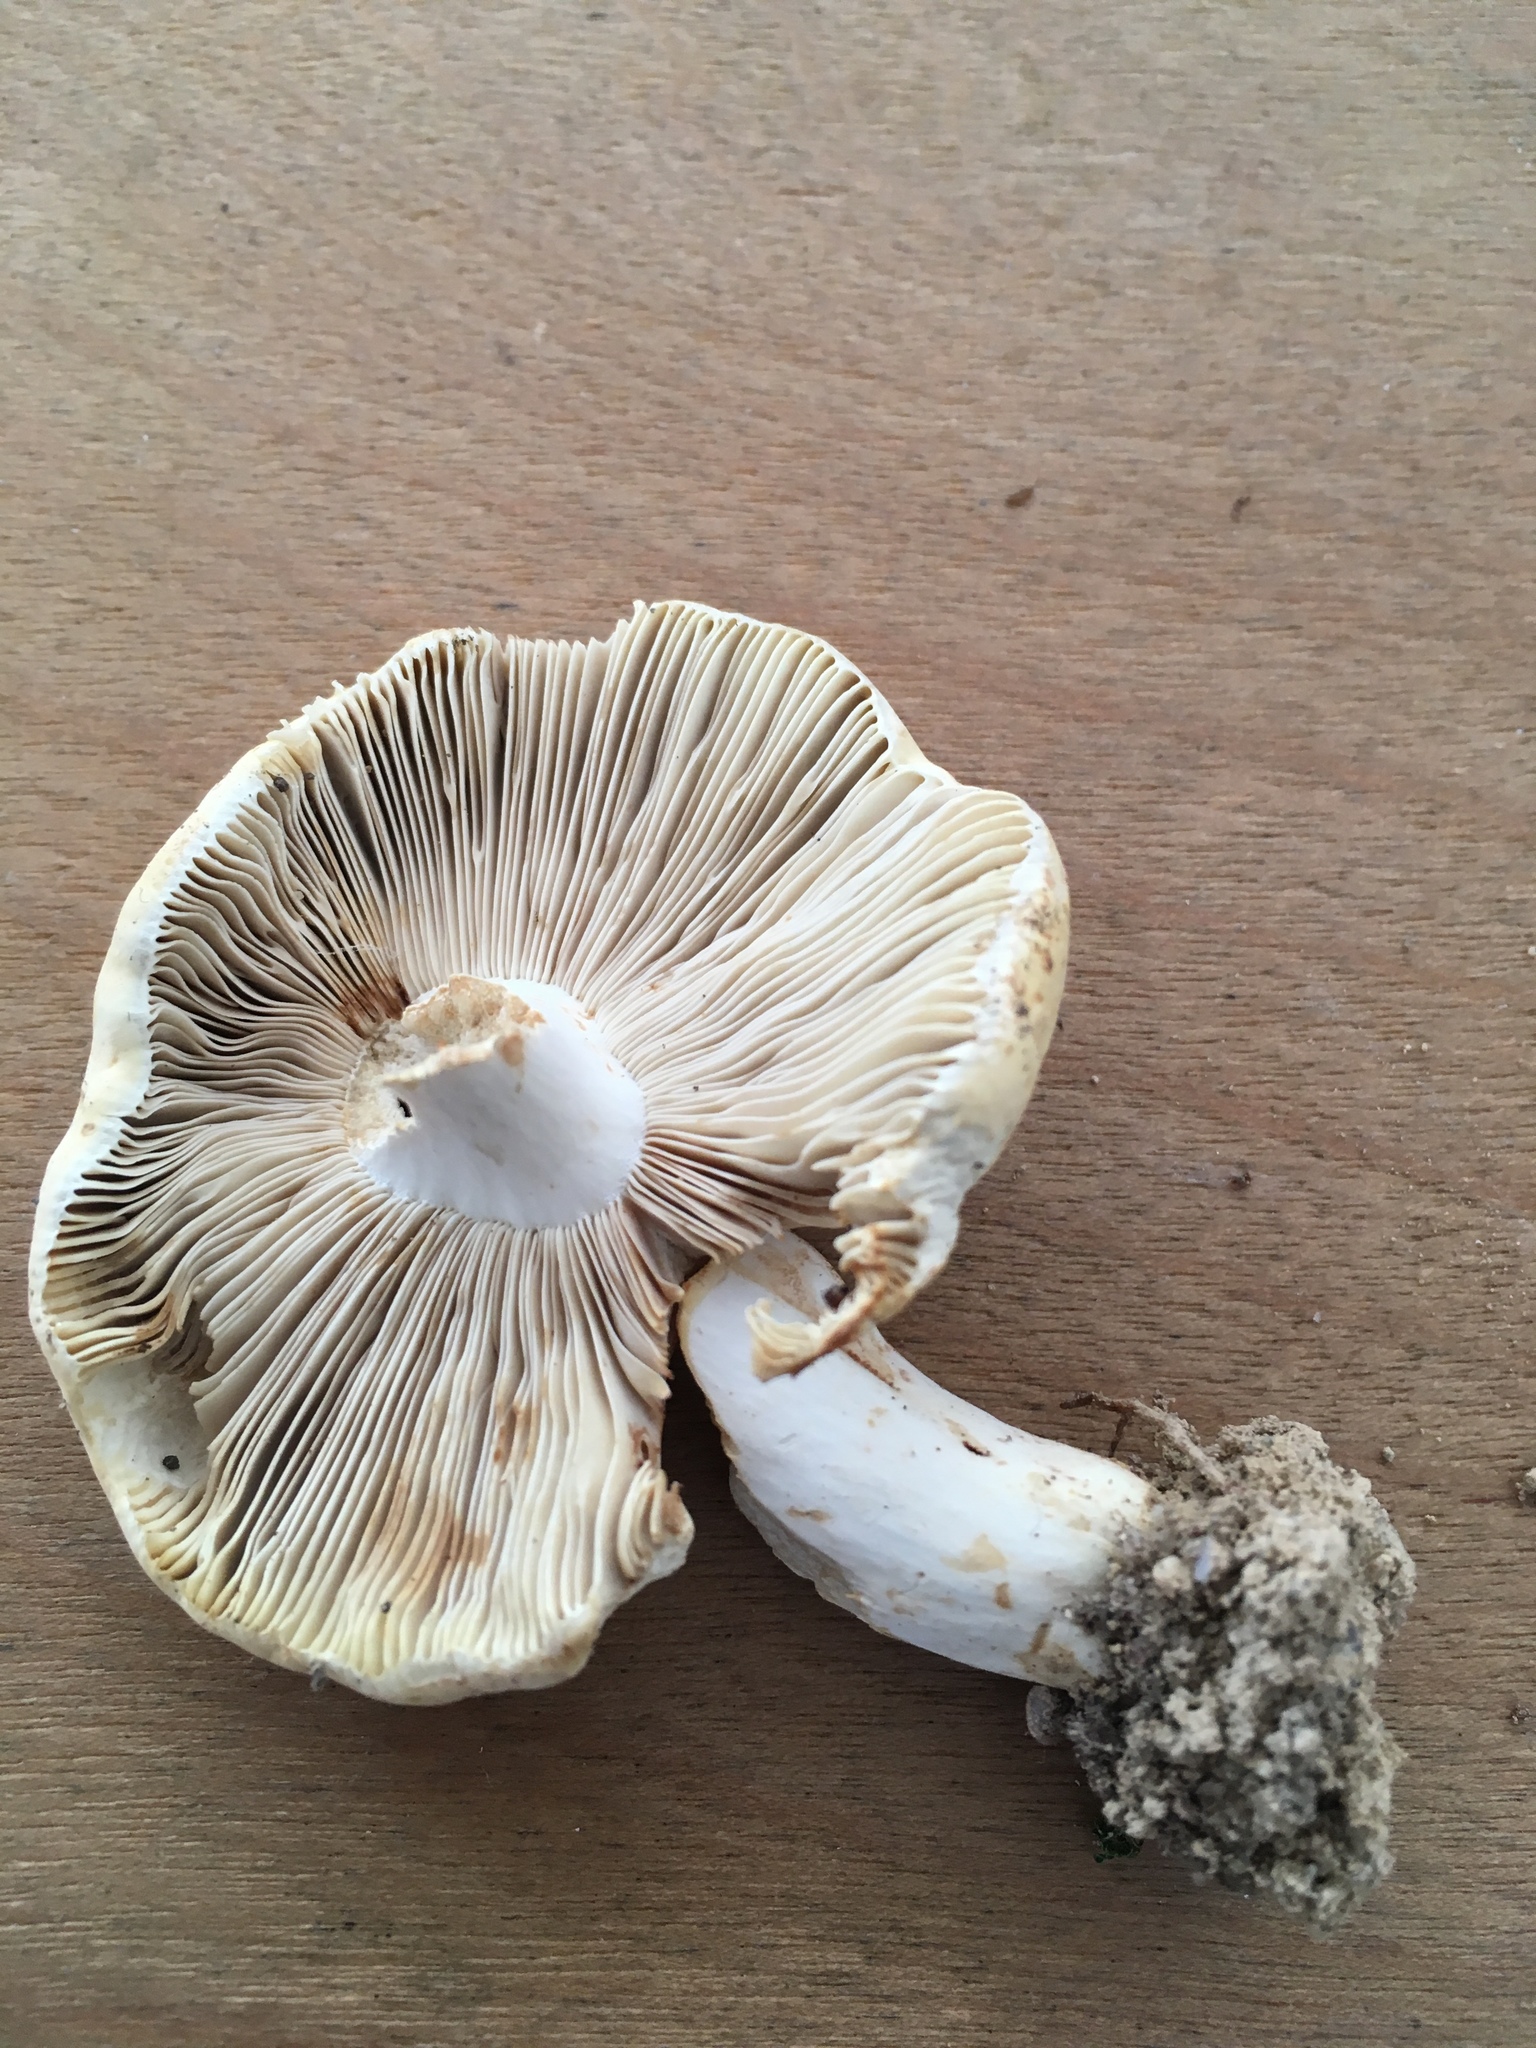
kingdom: Fungi
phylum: Basidiomycota
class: Agaricomycetes
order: Russulales
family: Russulaceae
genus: Russula
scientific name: Russula ochroleucoides
